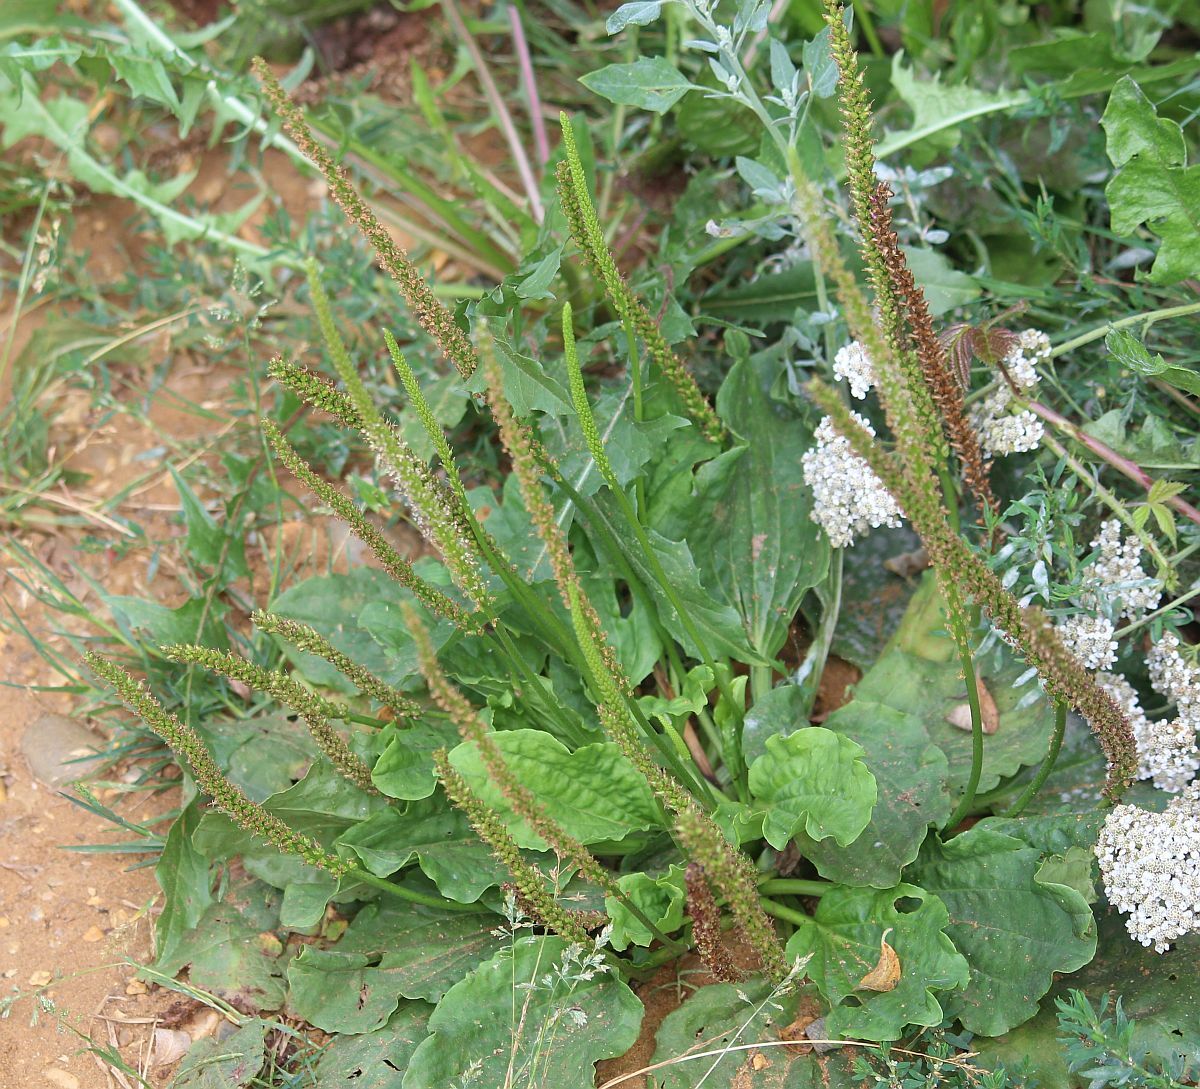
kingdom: Plantae
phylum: Tracheophyta
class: Magnoliopsida
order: Lamiales
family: Plantaginaceae
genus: Plantago
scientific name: Plantago major
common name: Common plantain
